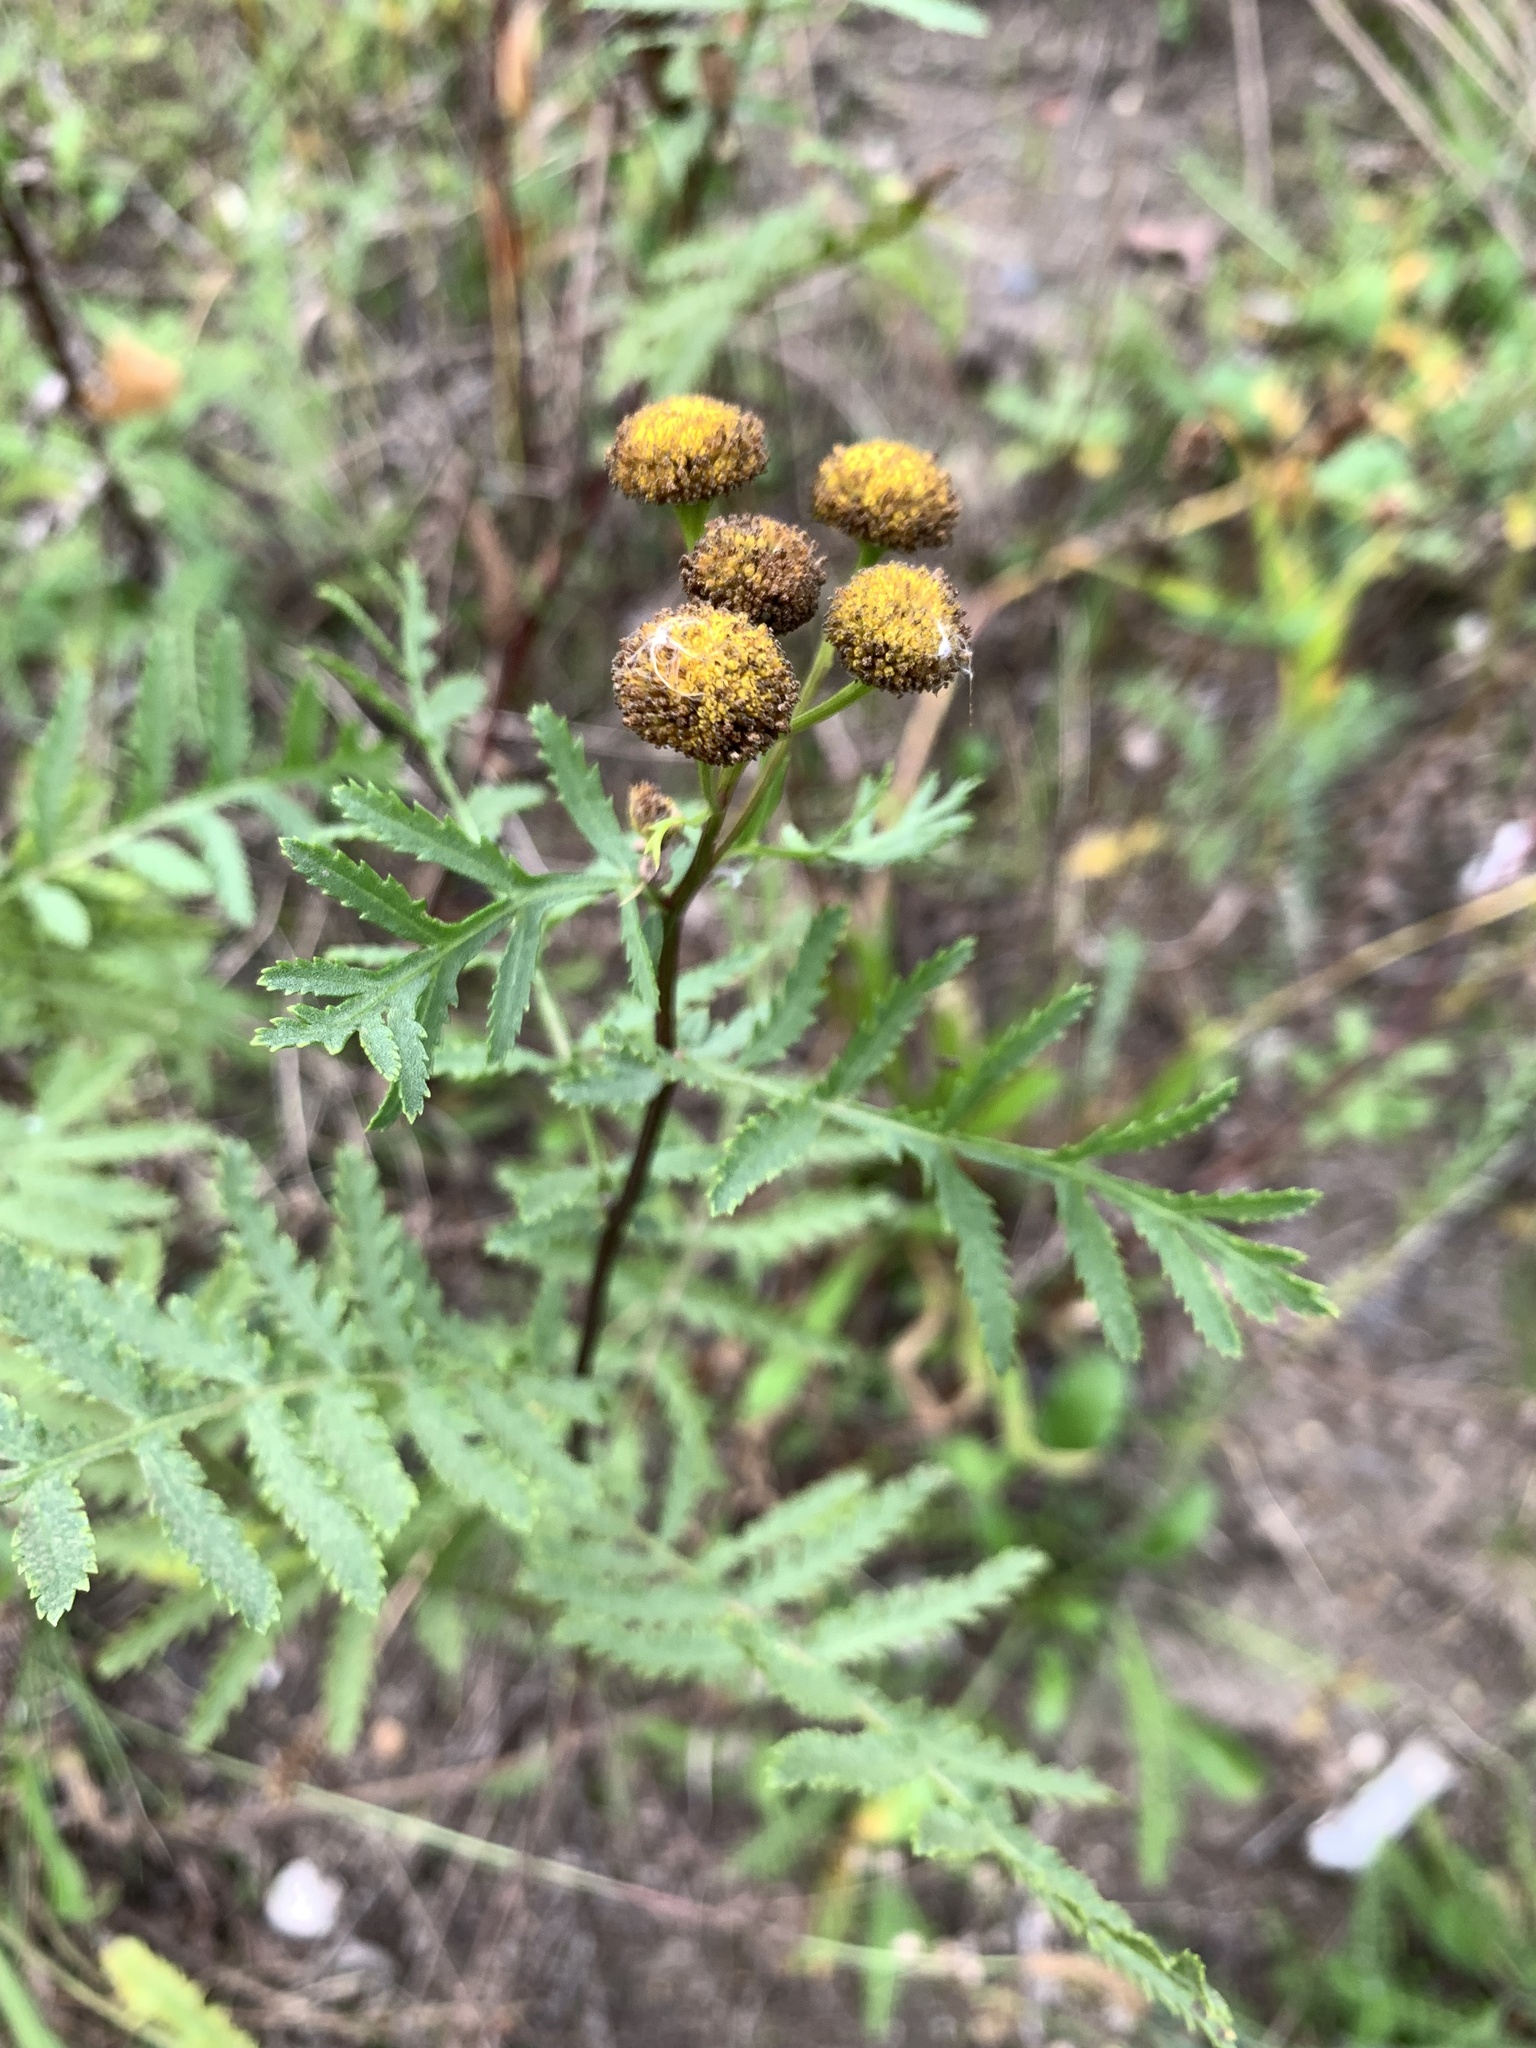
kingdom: Plantae
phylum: Tracheophyta
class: Magnoliopsida
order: Asterales
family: Asteraceae
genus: Tanacetum
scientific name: Tanacetum vulgare
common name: Common tansy
